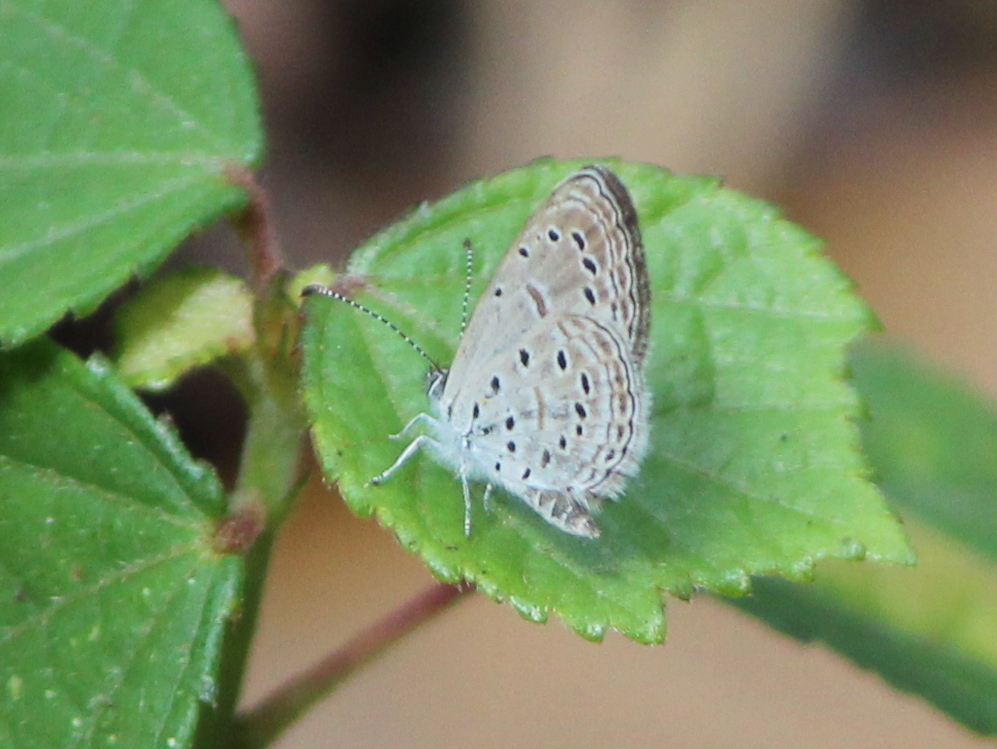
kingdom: Animalia
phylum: Arthropoda
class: Insecta
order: Lepidoptera
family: Lycaenidae
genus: Zizula
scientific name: Zizula hylax
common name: Gaika blue
